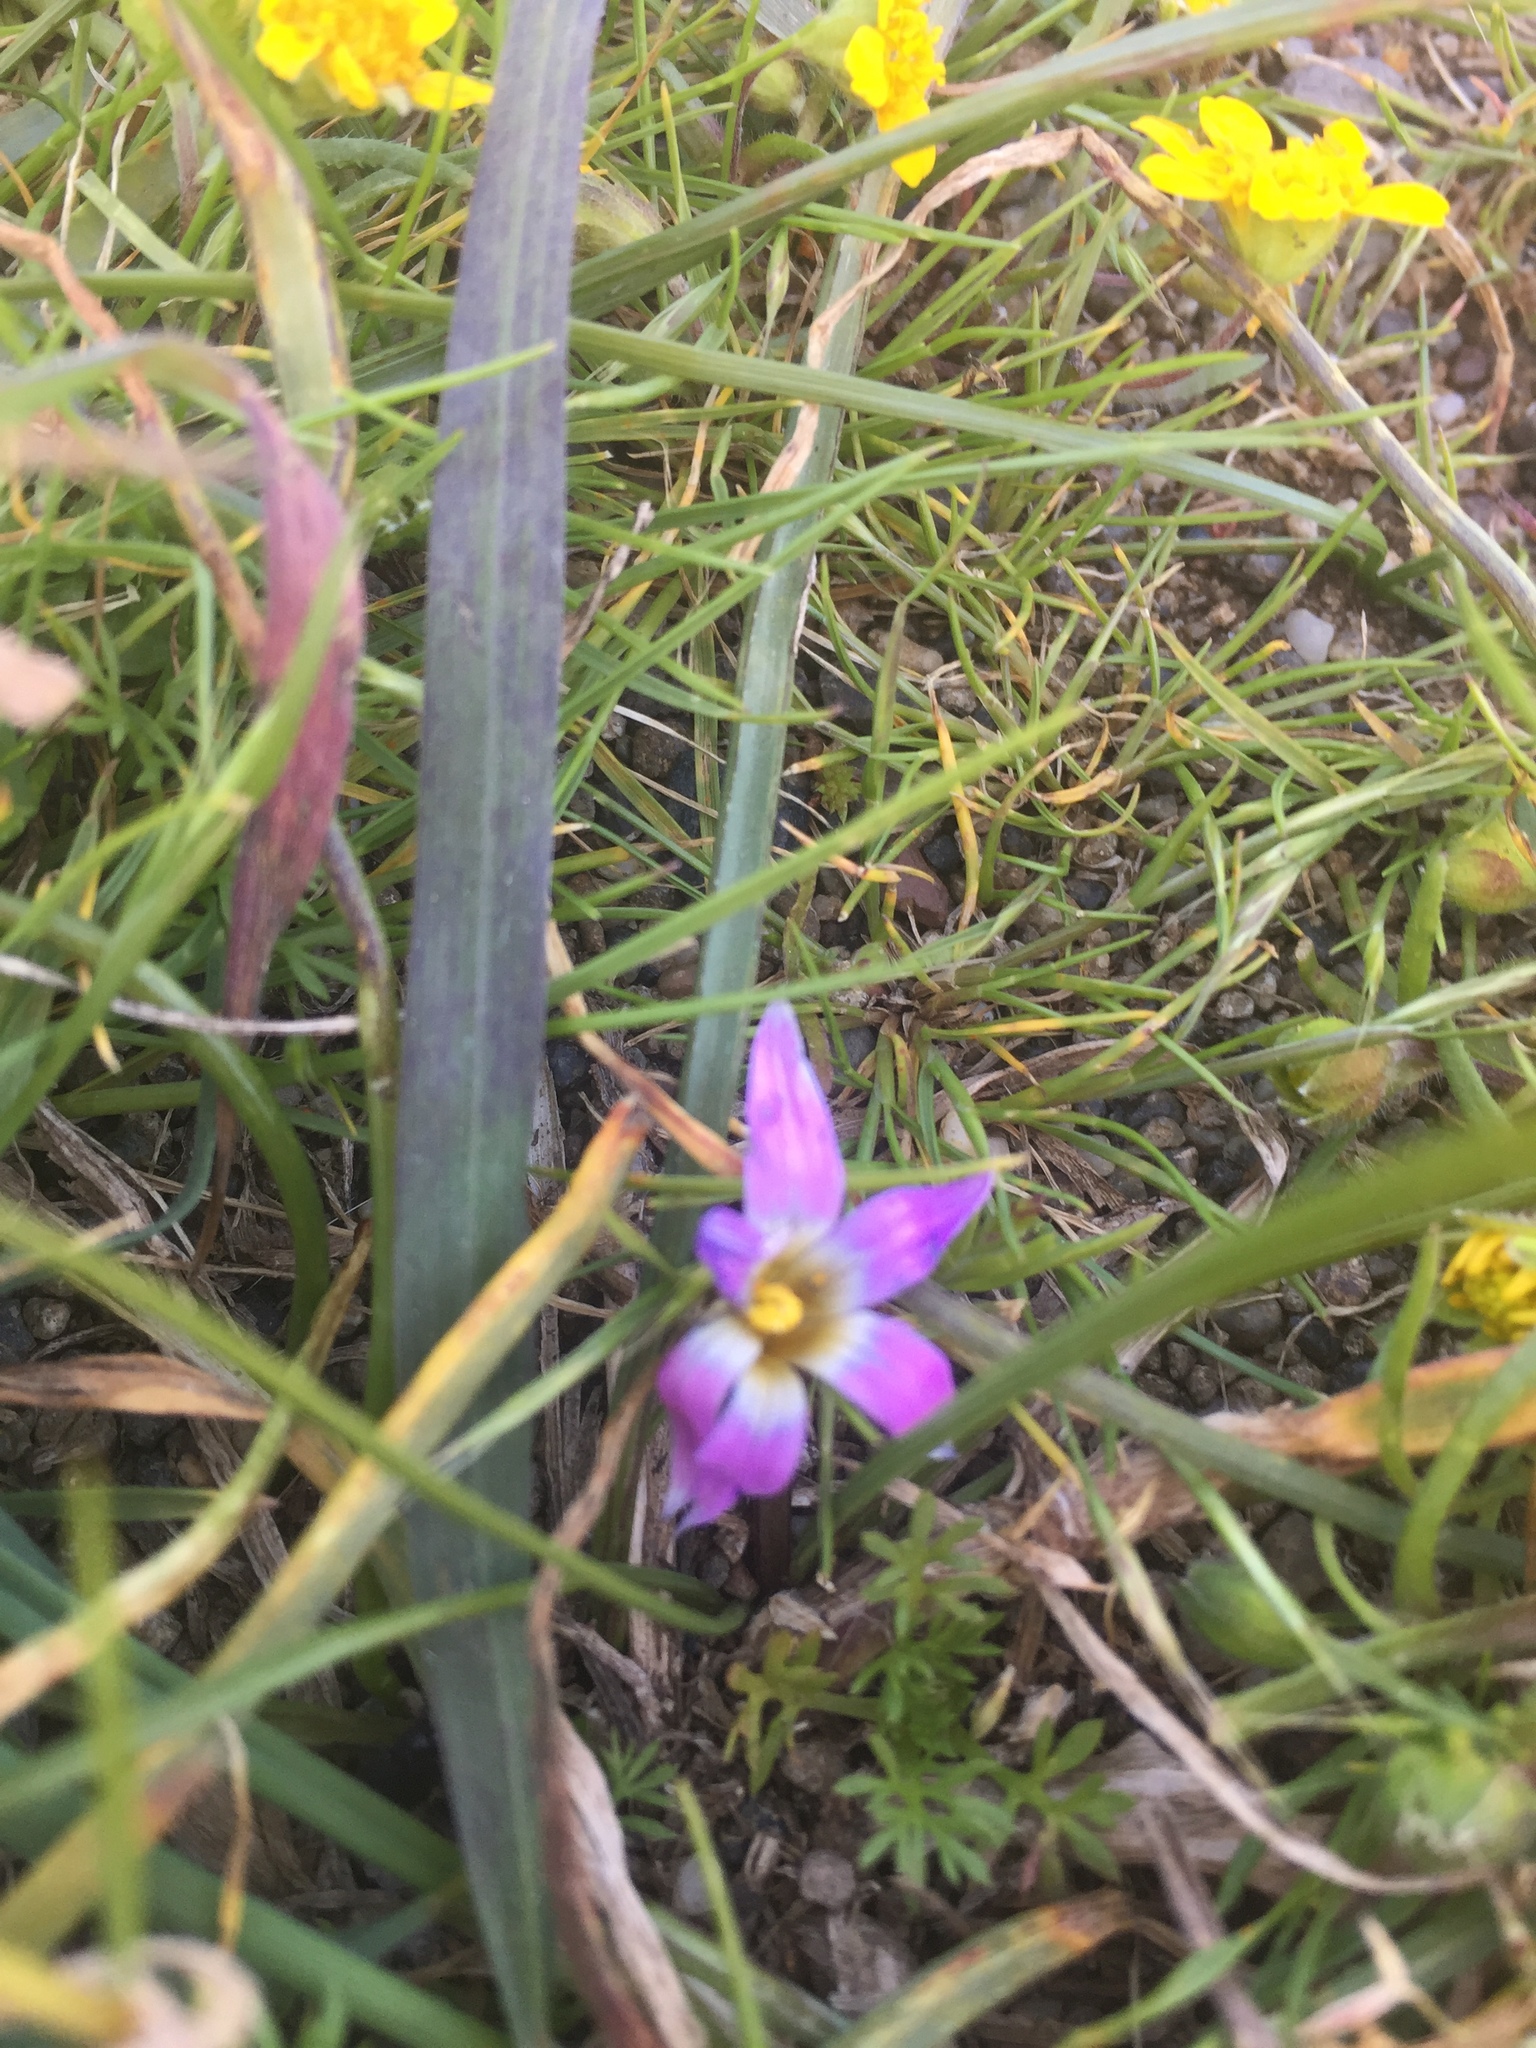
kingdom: Plantae
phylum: Tracheophyta
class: Liliopsida
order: Asparagales
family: Iridaceae
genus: Romulea
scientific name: Romulea rosea
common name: Oniongrass
